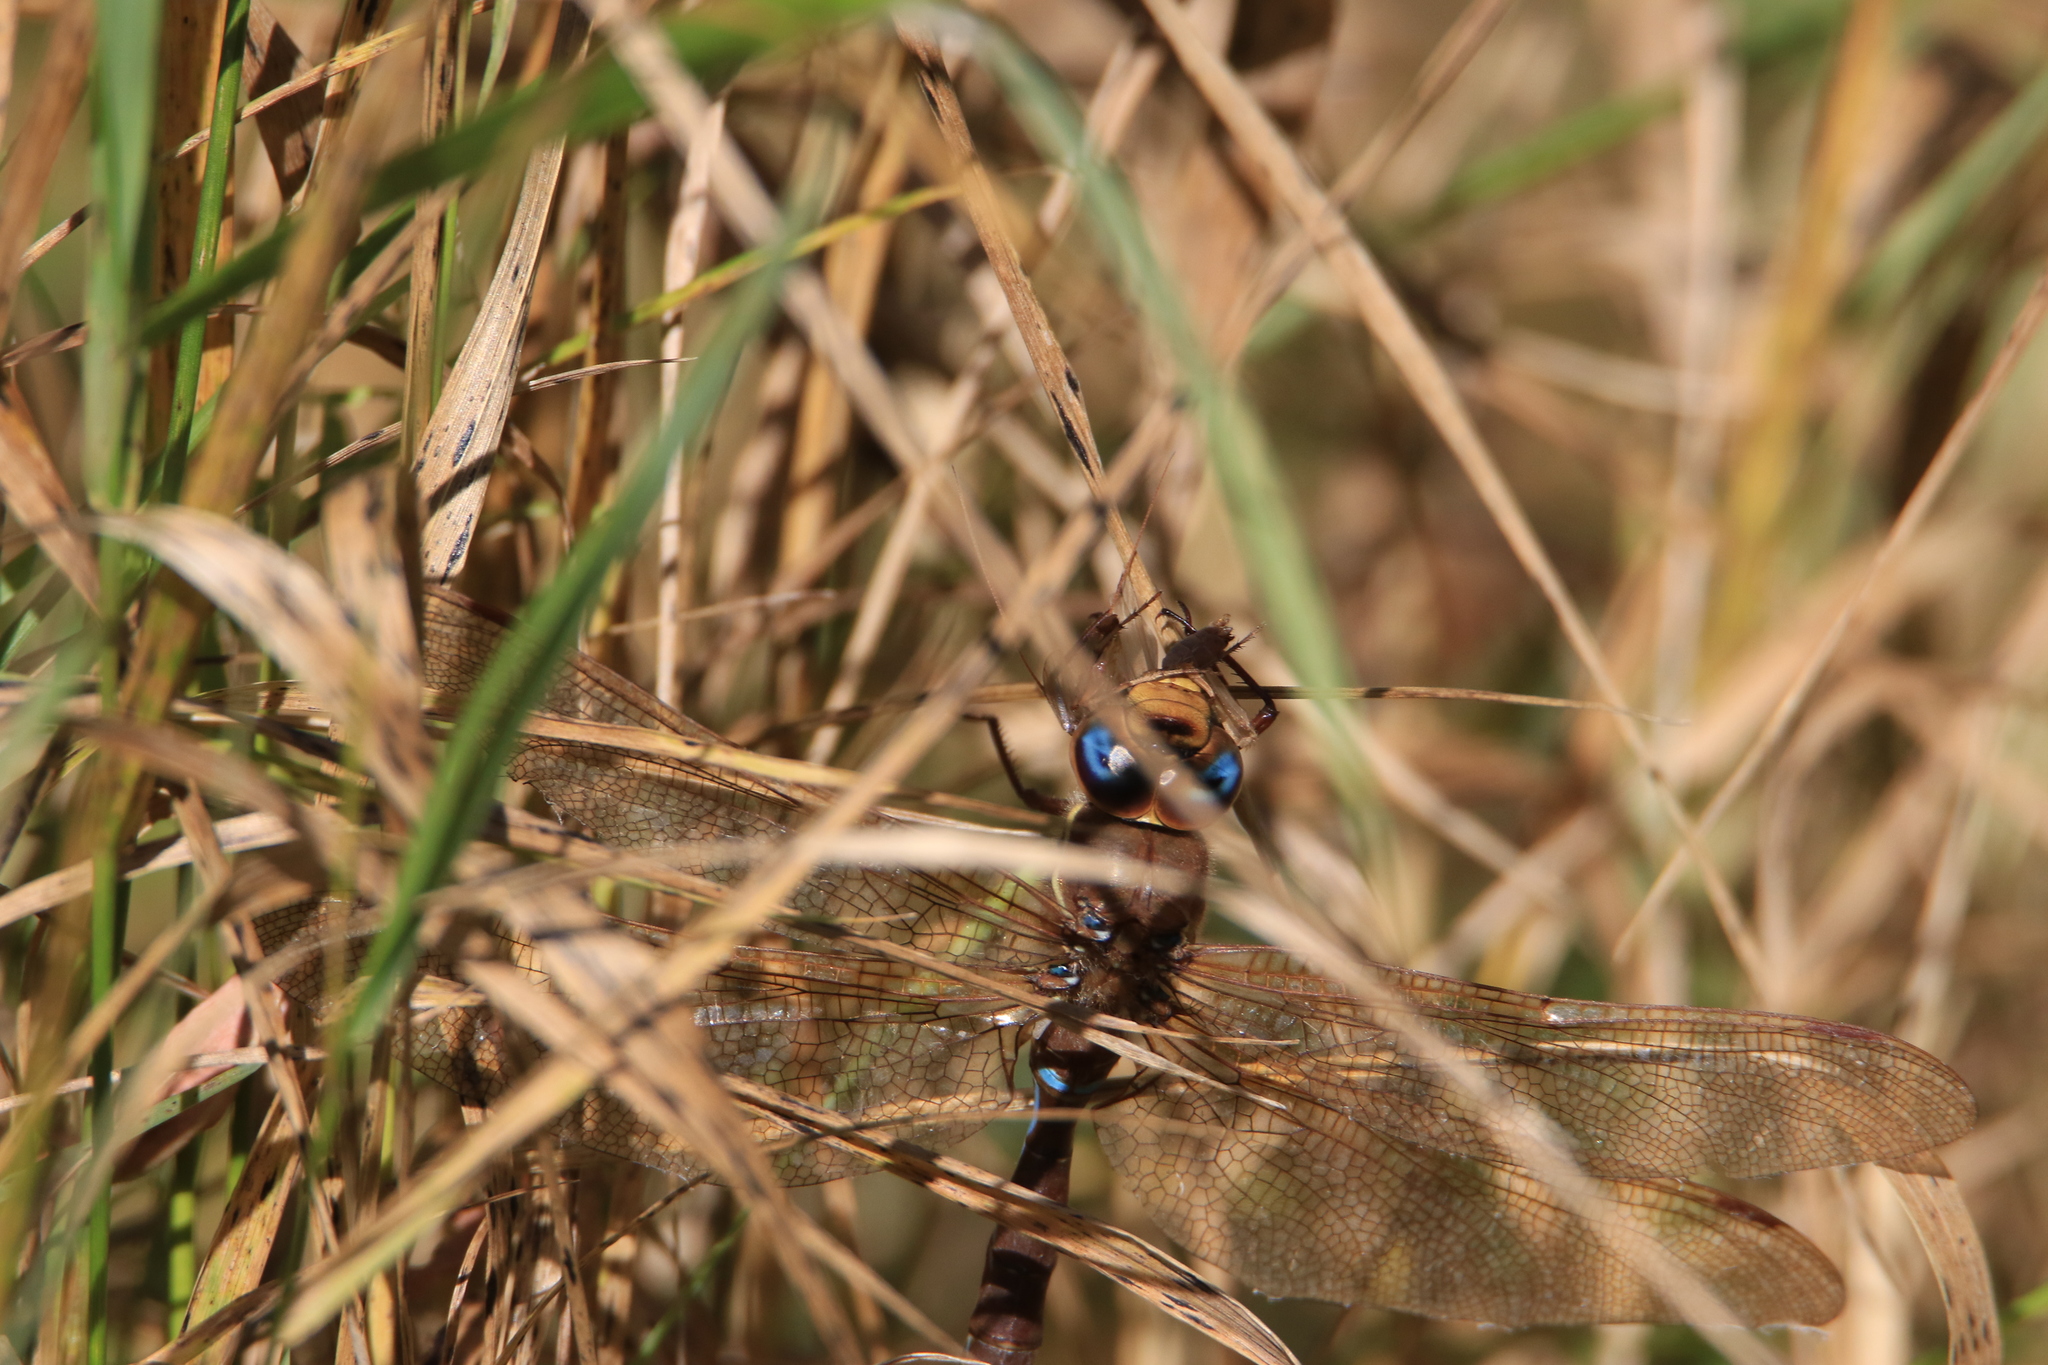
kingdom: Animalia
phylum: Arthropoda
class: Insecta
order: Odonata
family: Aeshnidae
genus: Aeshna
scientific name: Aeshna grandis
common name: Brown hawker
